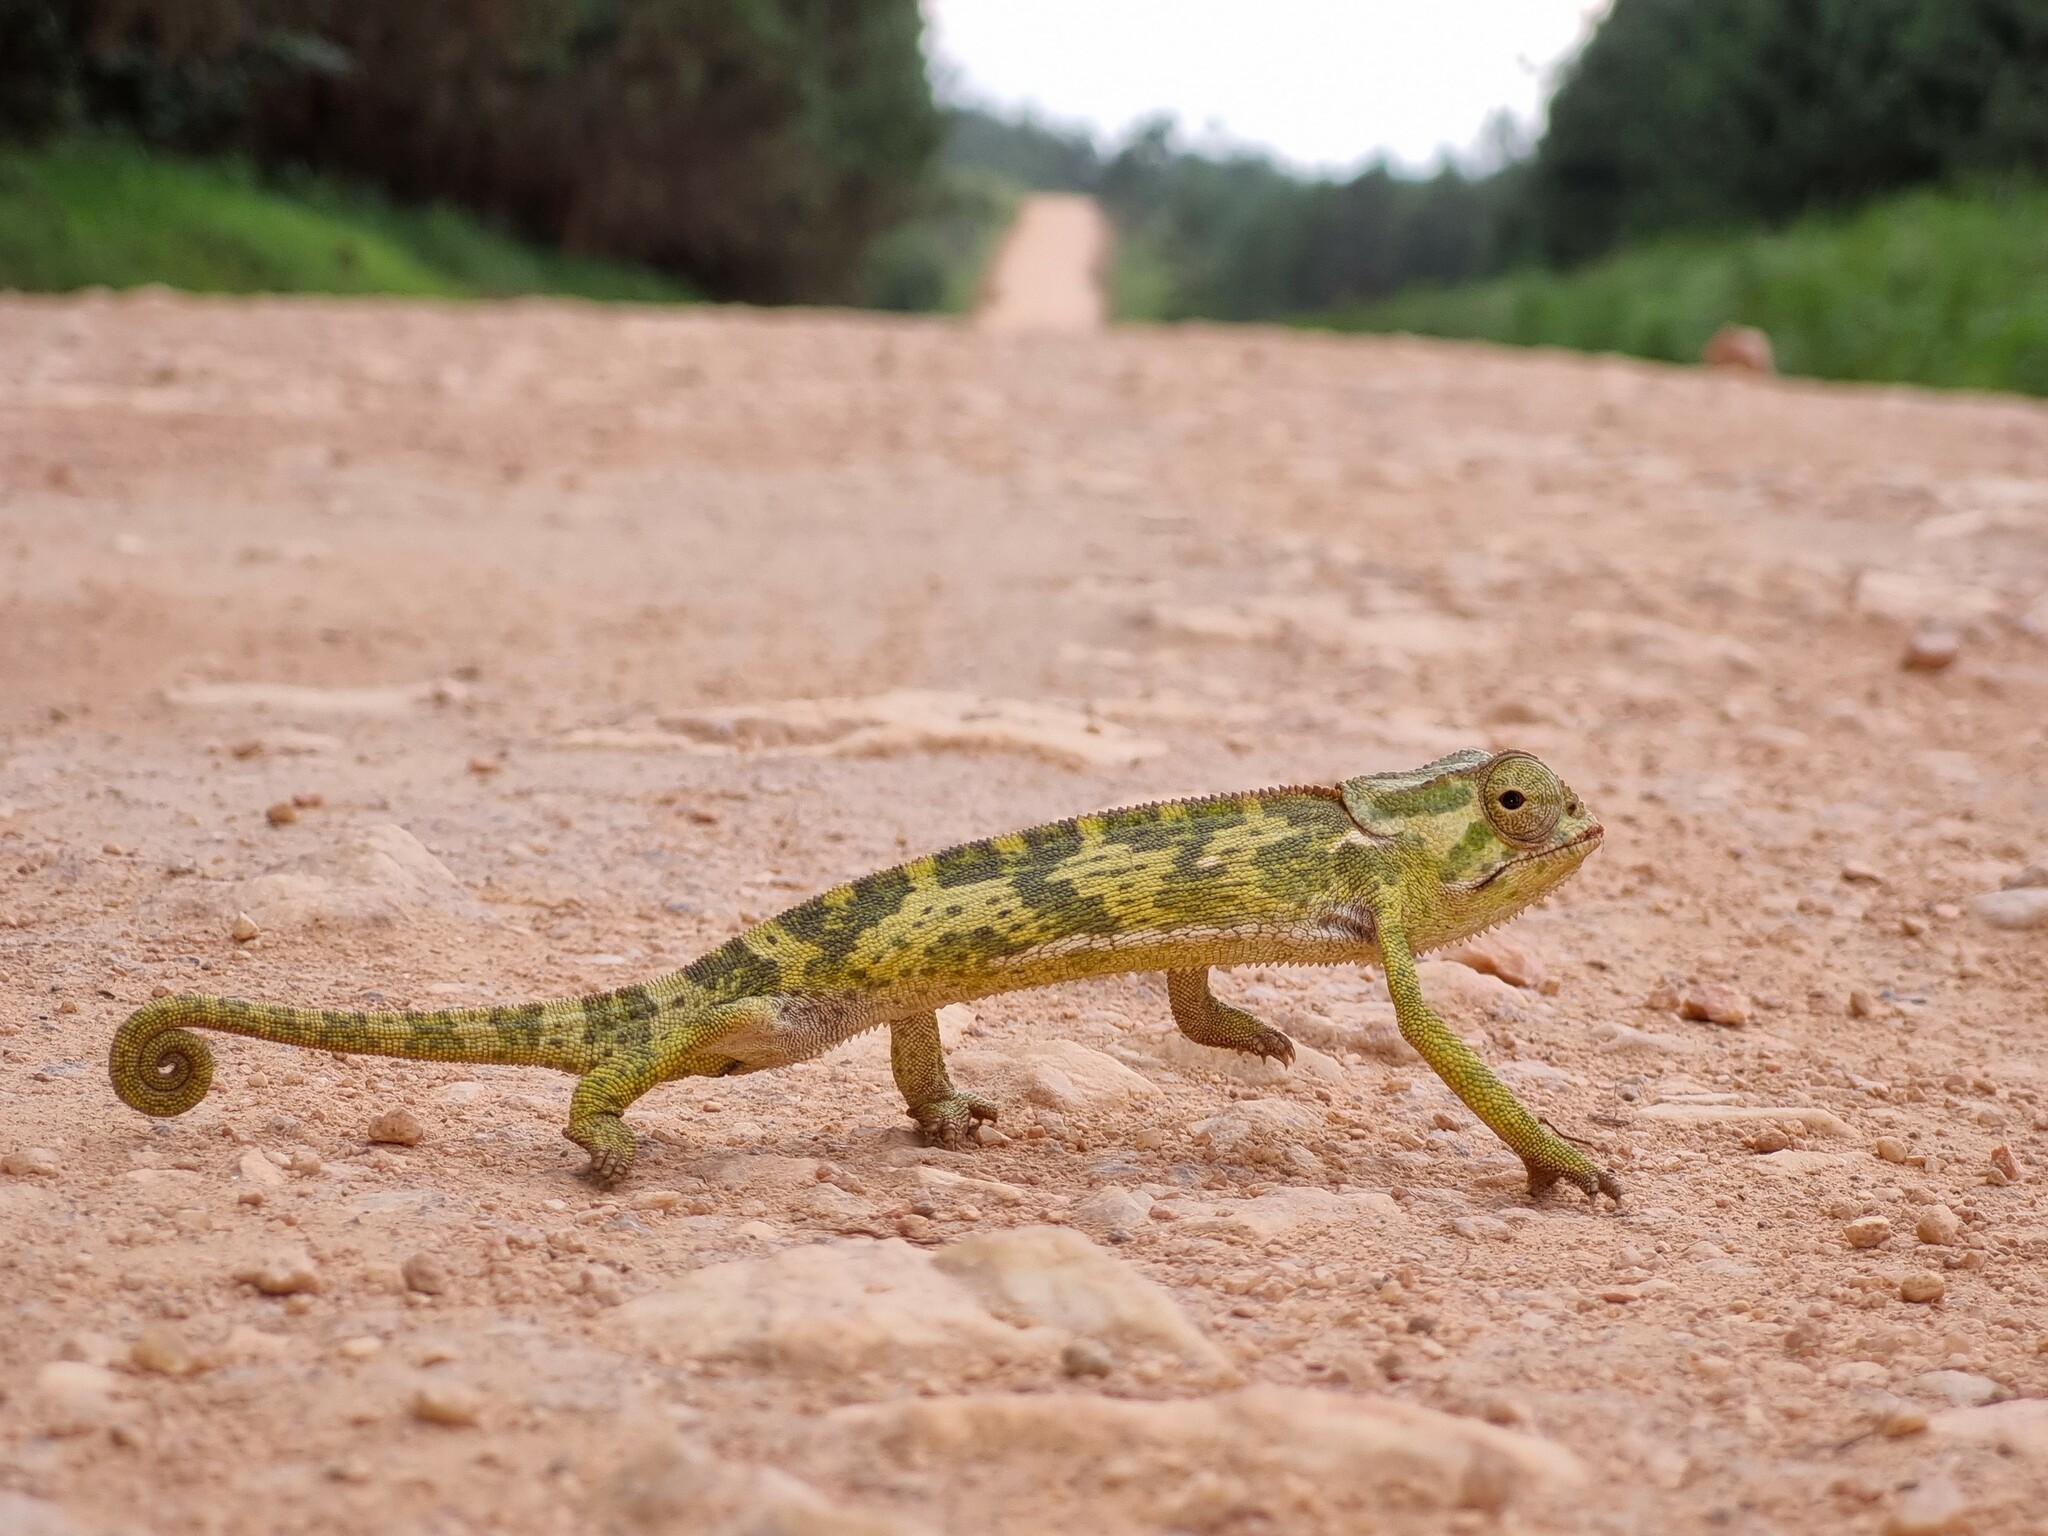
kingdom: Animalia
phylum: Chordata
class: Squamata
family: Chamaeleonidae
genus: Chamaeleo
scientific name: Chamaeleo dilepis
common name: Flapneck chameleon
